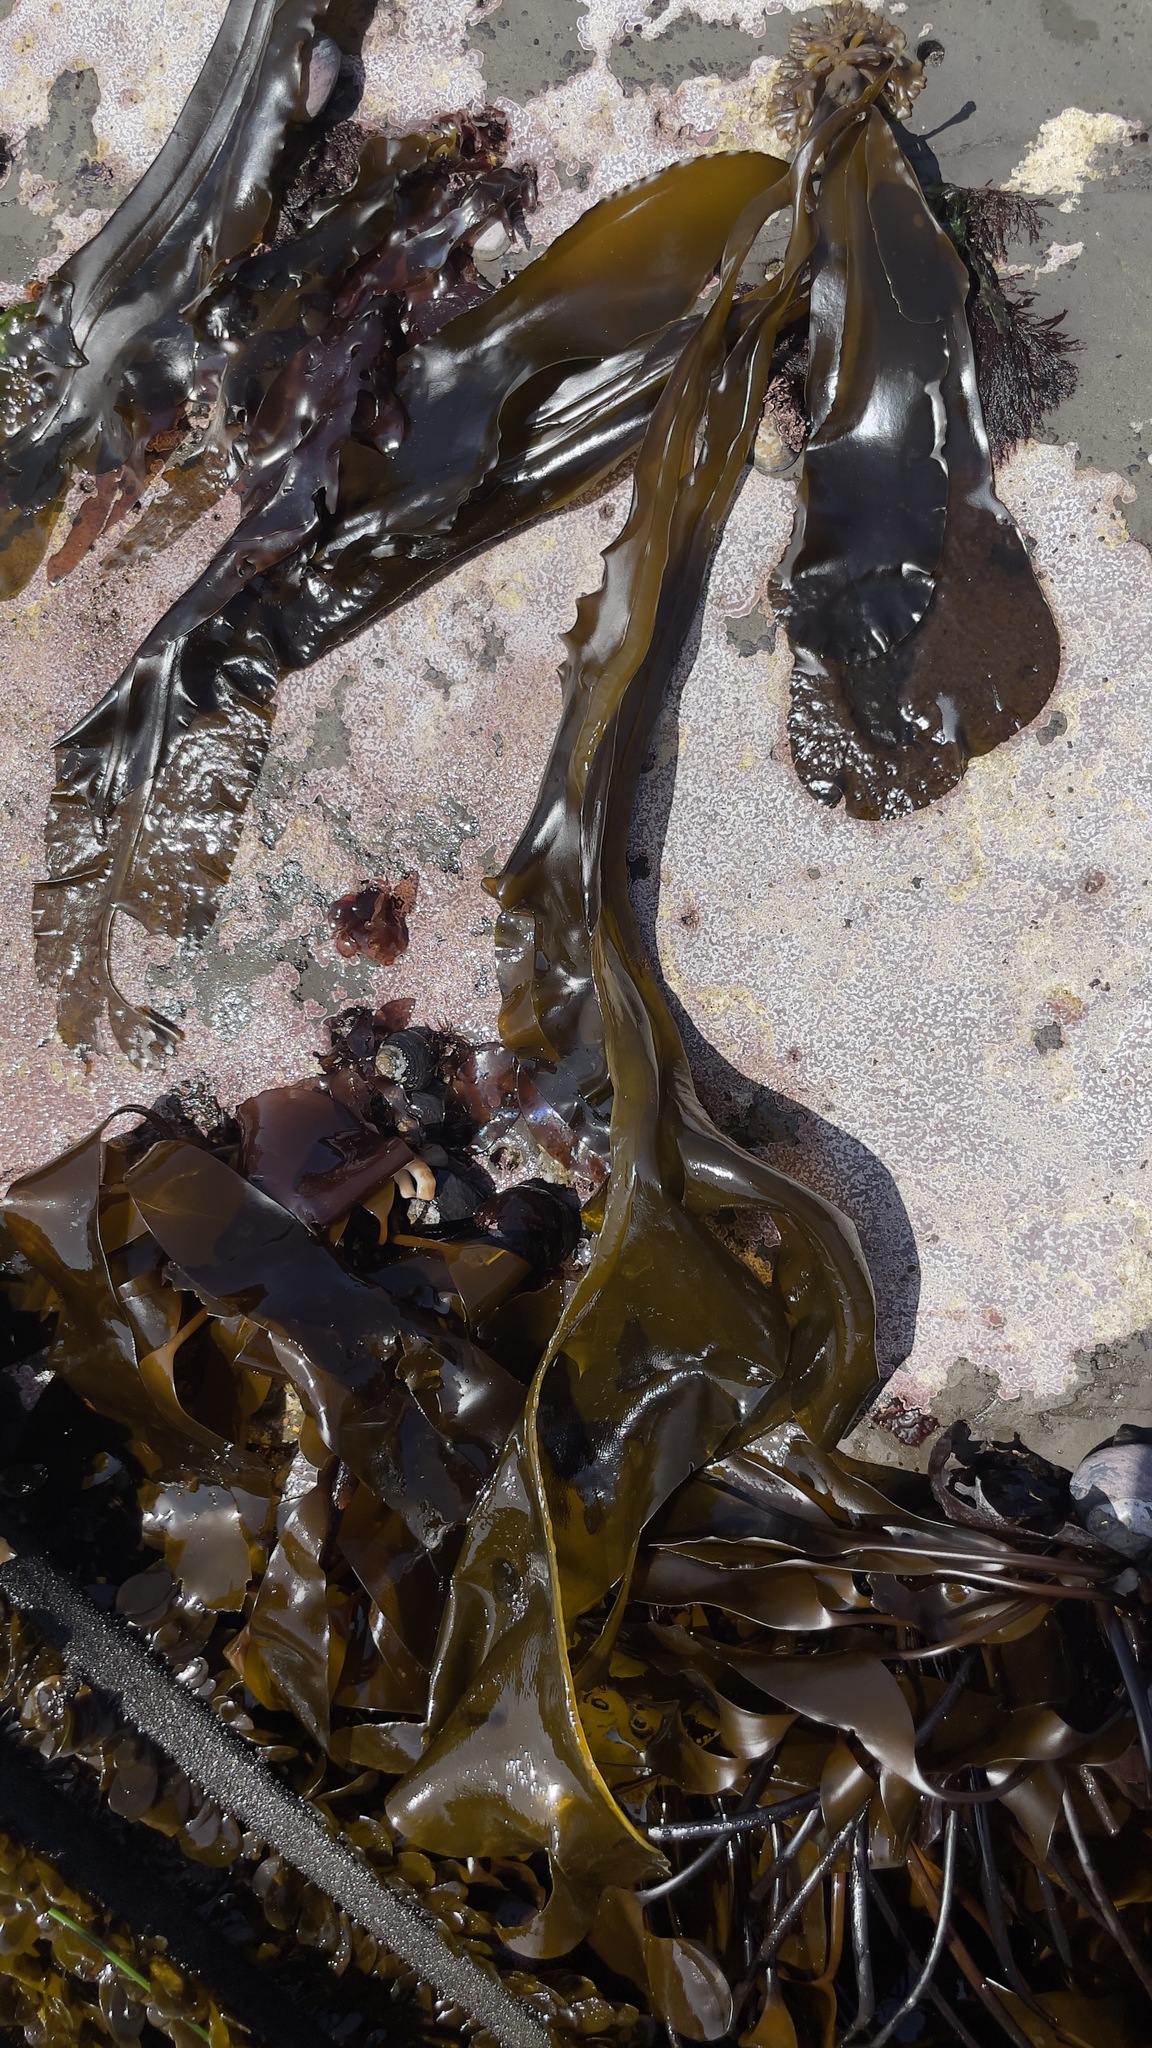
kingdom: Chromista
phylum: Ochrophyta
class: Phaeophyceae
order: Laminariales
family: Alariaceae
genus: Alaria
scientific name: Alaria marginata
